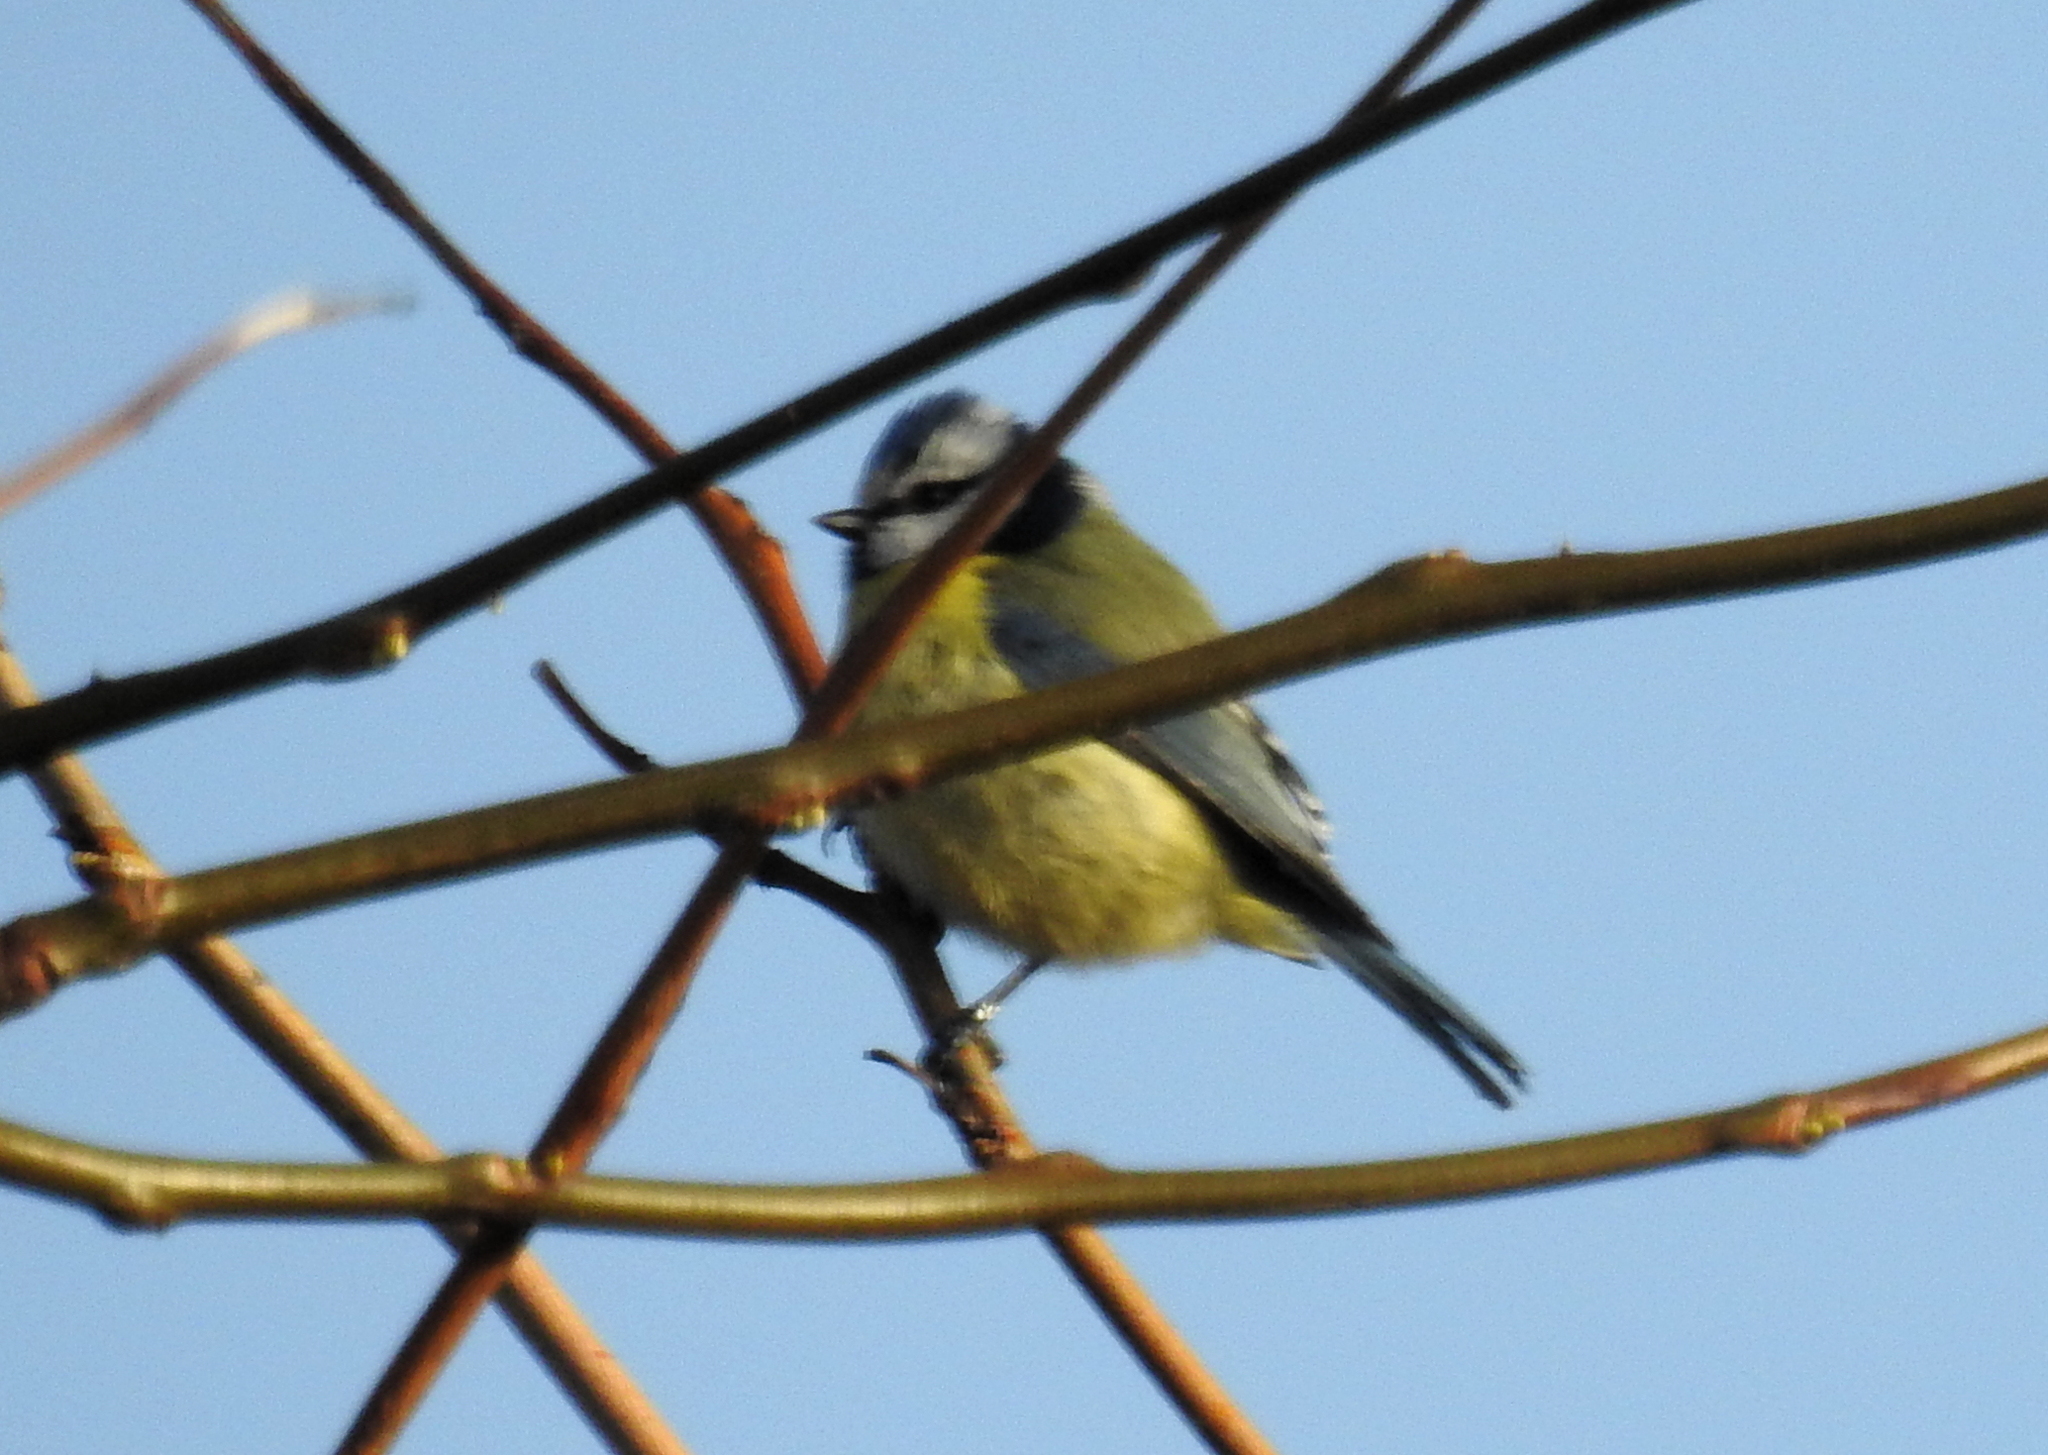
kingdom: Animalia
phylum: Chordata
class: Aves
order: Passeriformes
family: Paridae
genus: Cyanistes
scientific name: Cyanistes caeruleus
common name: Eurasian blue tit
